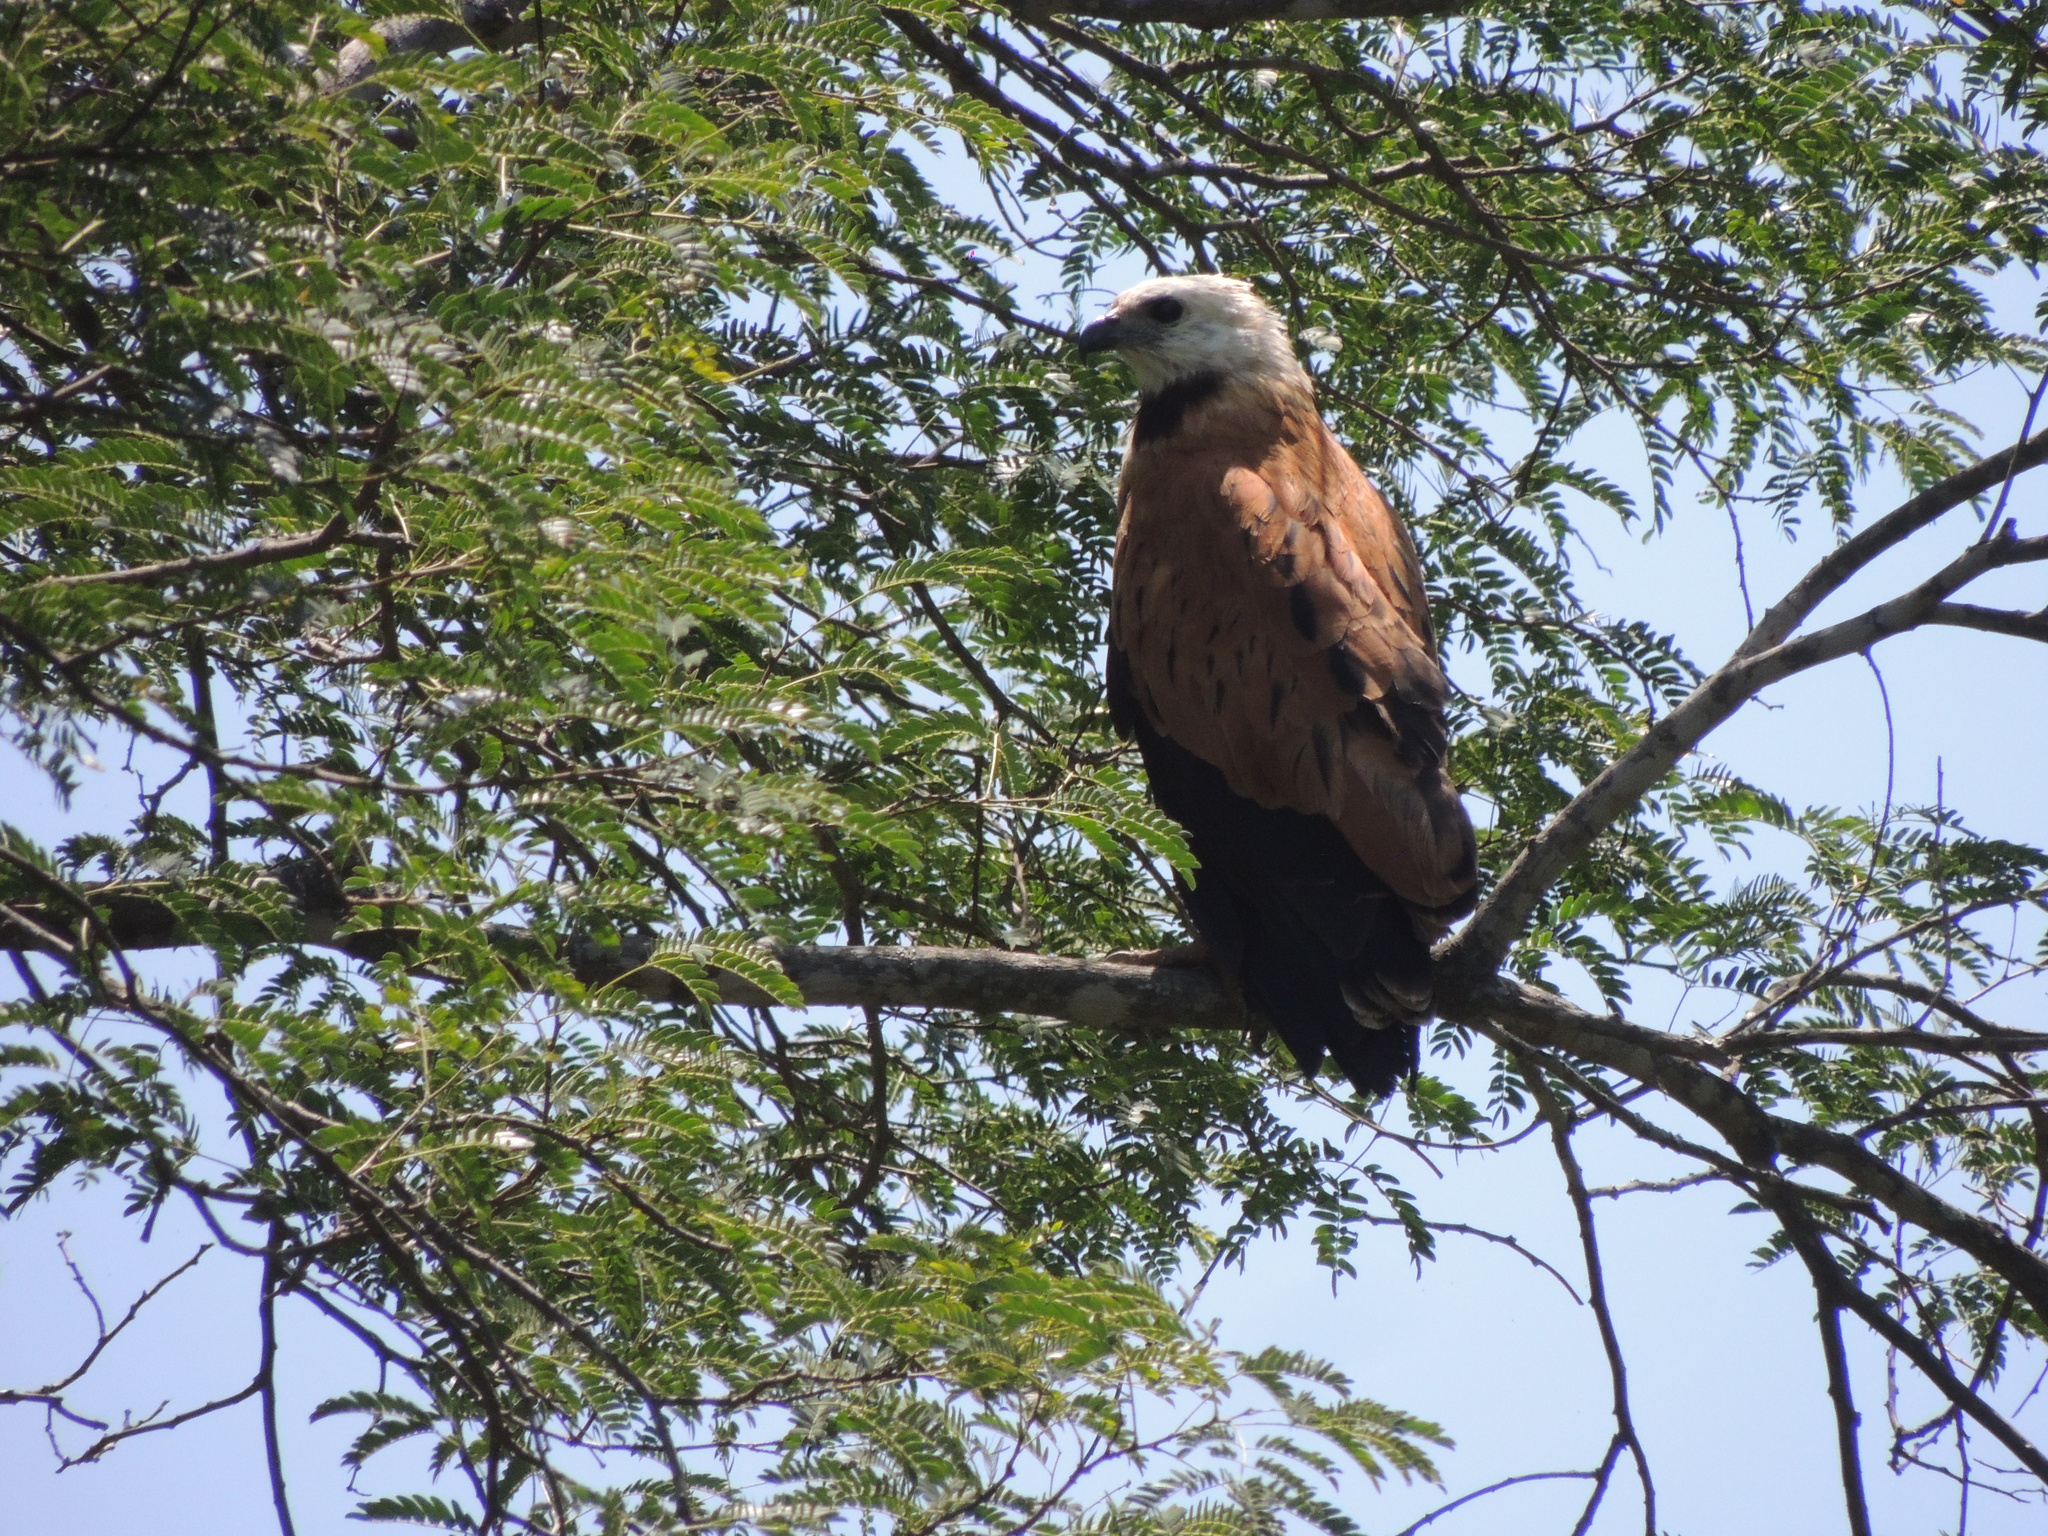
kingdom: Animalia
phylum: Chordata
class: Aves
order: Accipitriformes
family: Accipitridae
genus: Busarellus
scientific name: Busarellus nigricollis
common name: Black-collared hawk
